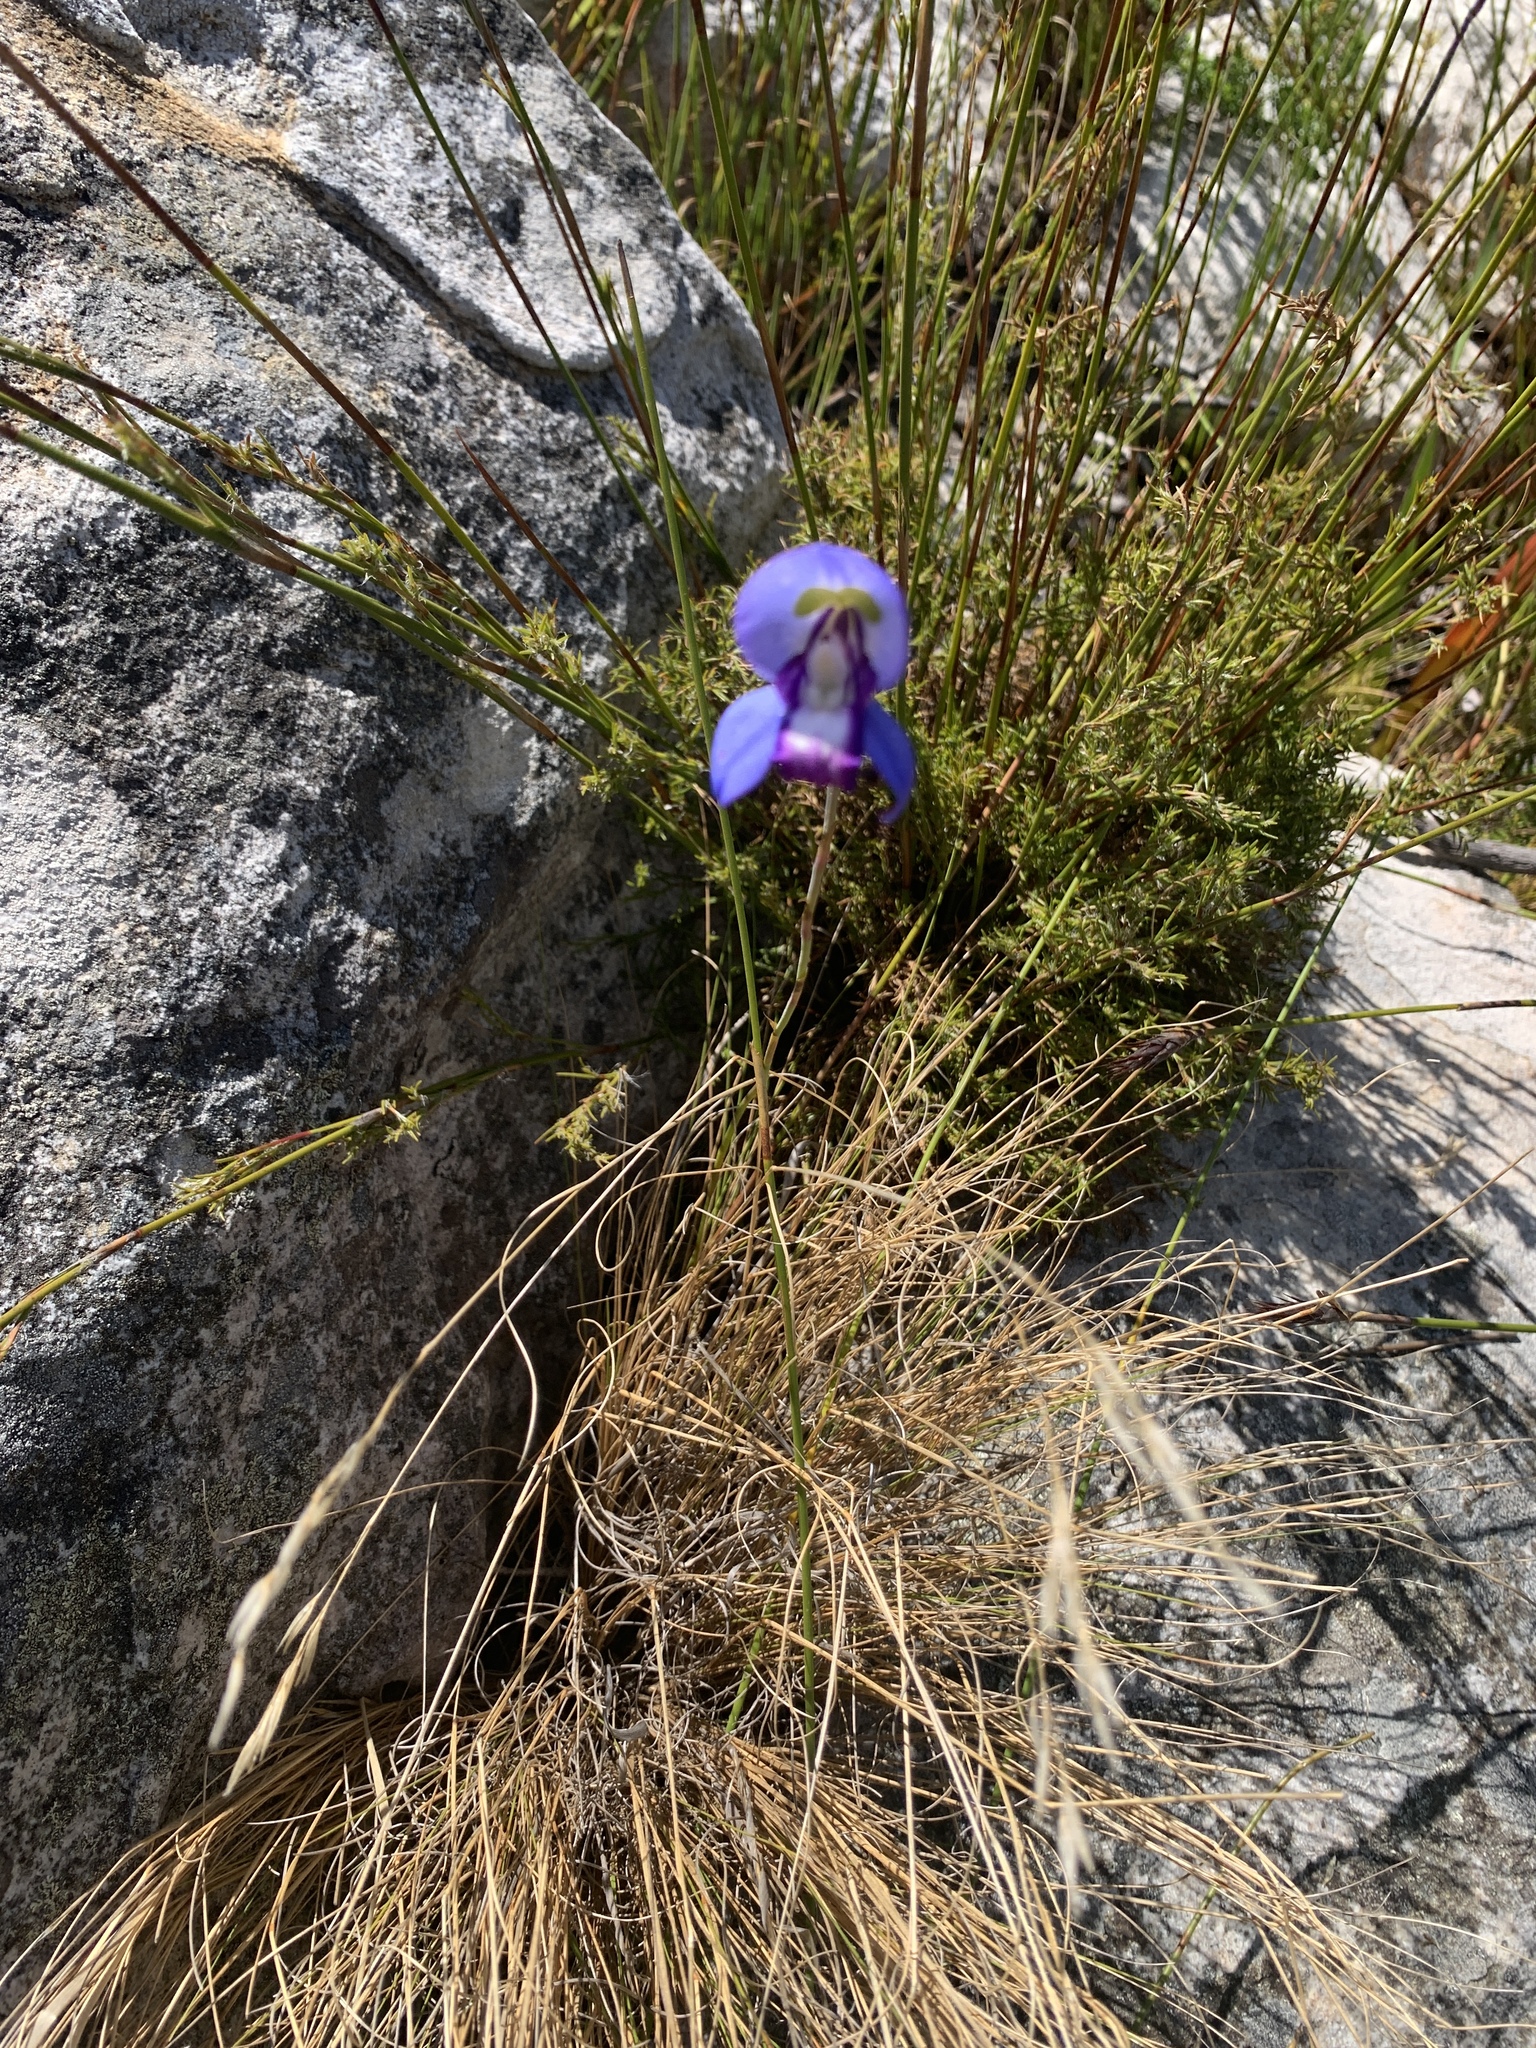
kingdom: Plantae
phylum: Tracheophyta
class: Liliopsida
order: Asparagales
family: Orchidaceae
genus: Disa
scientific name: Disa graminifolia
